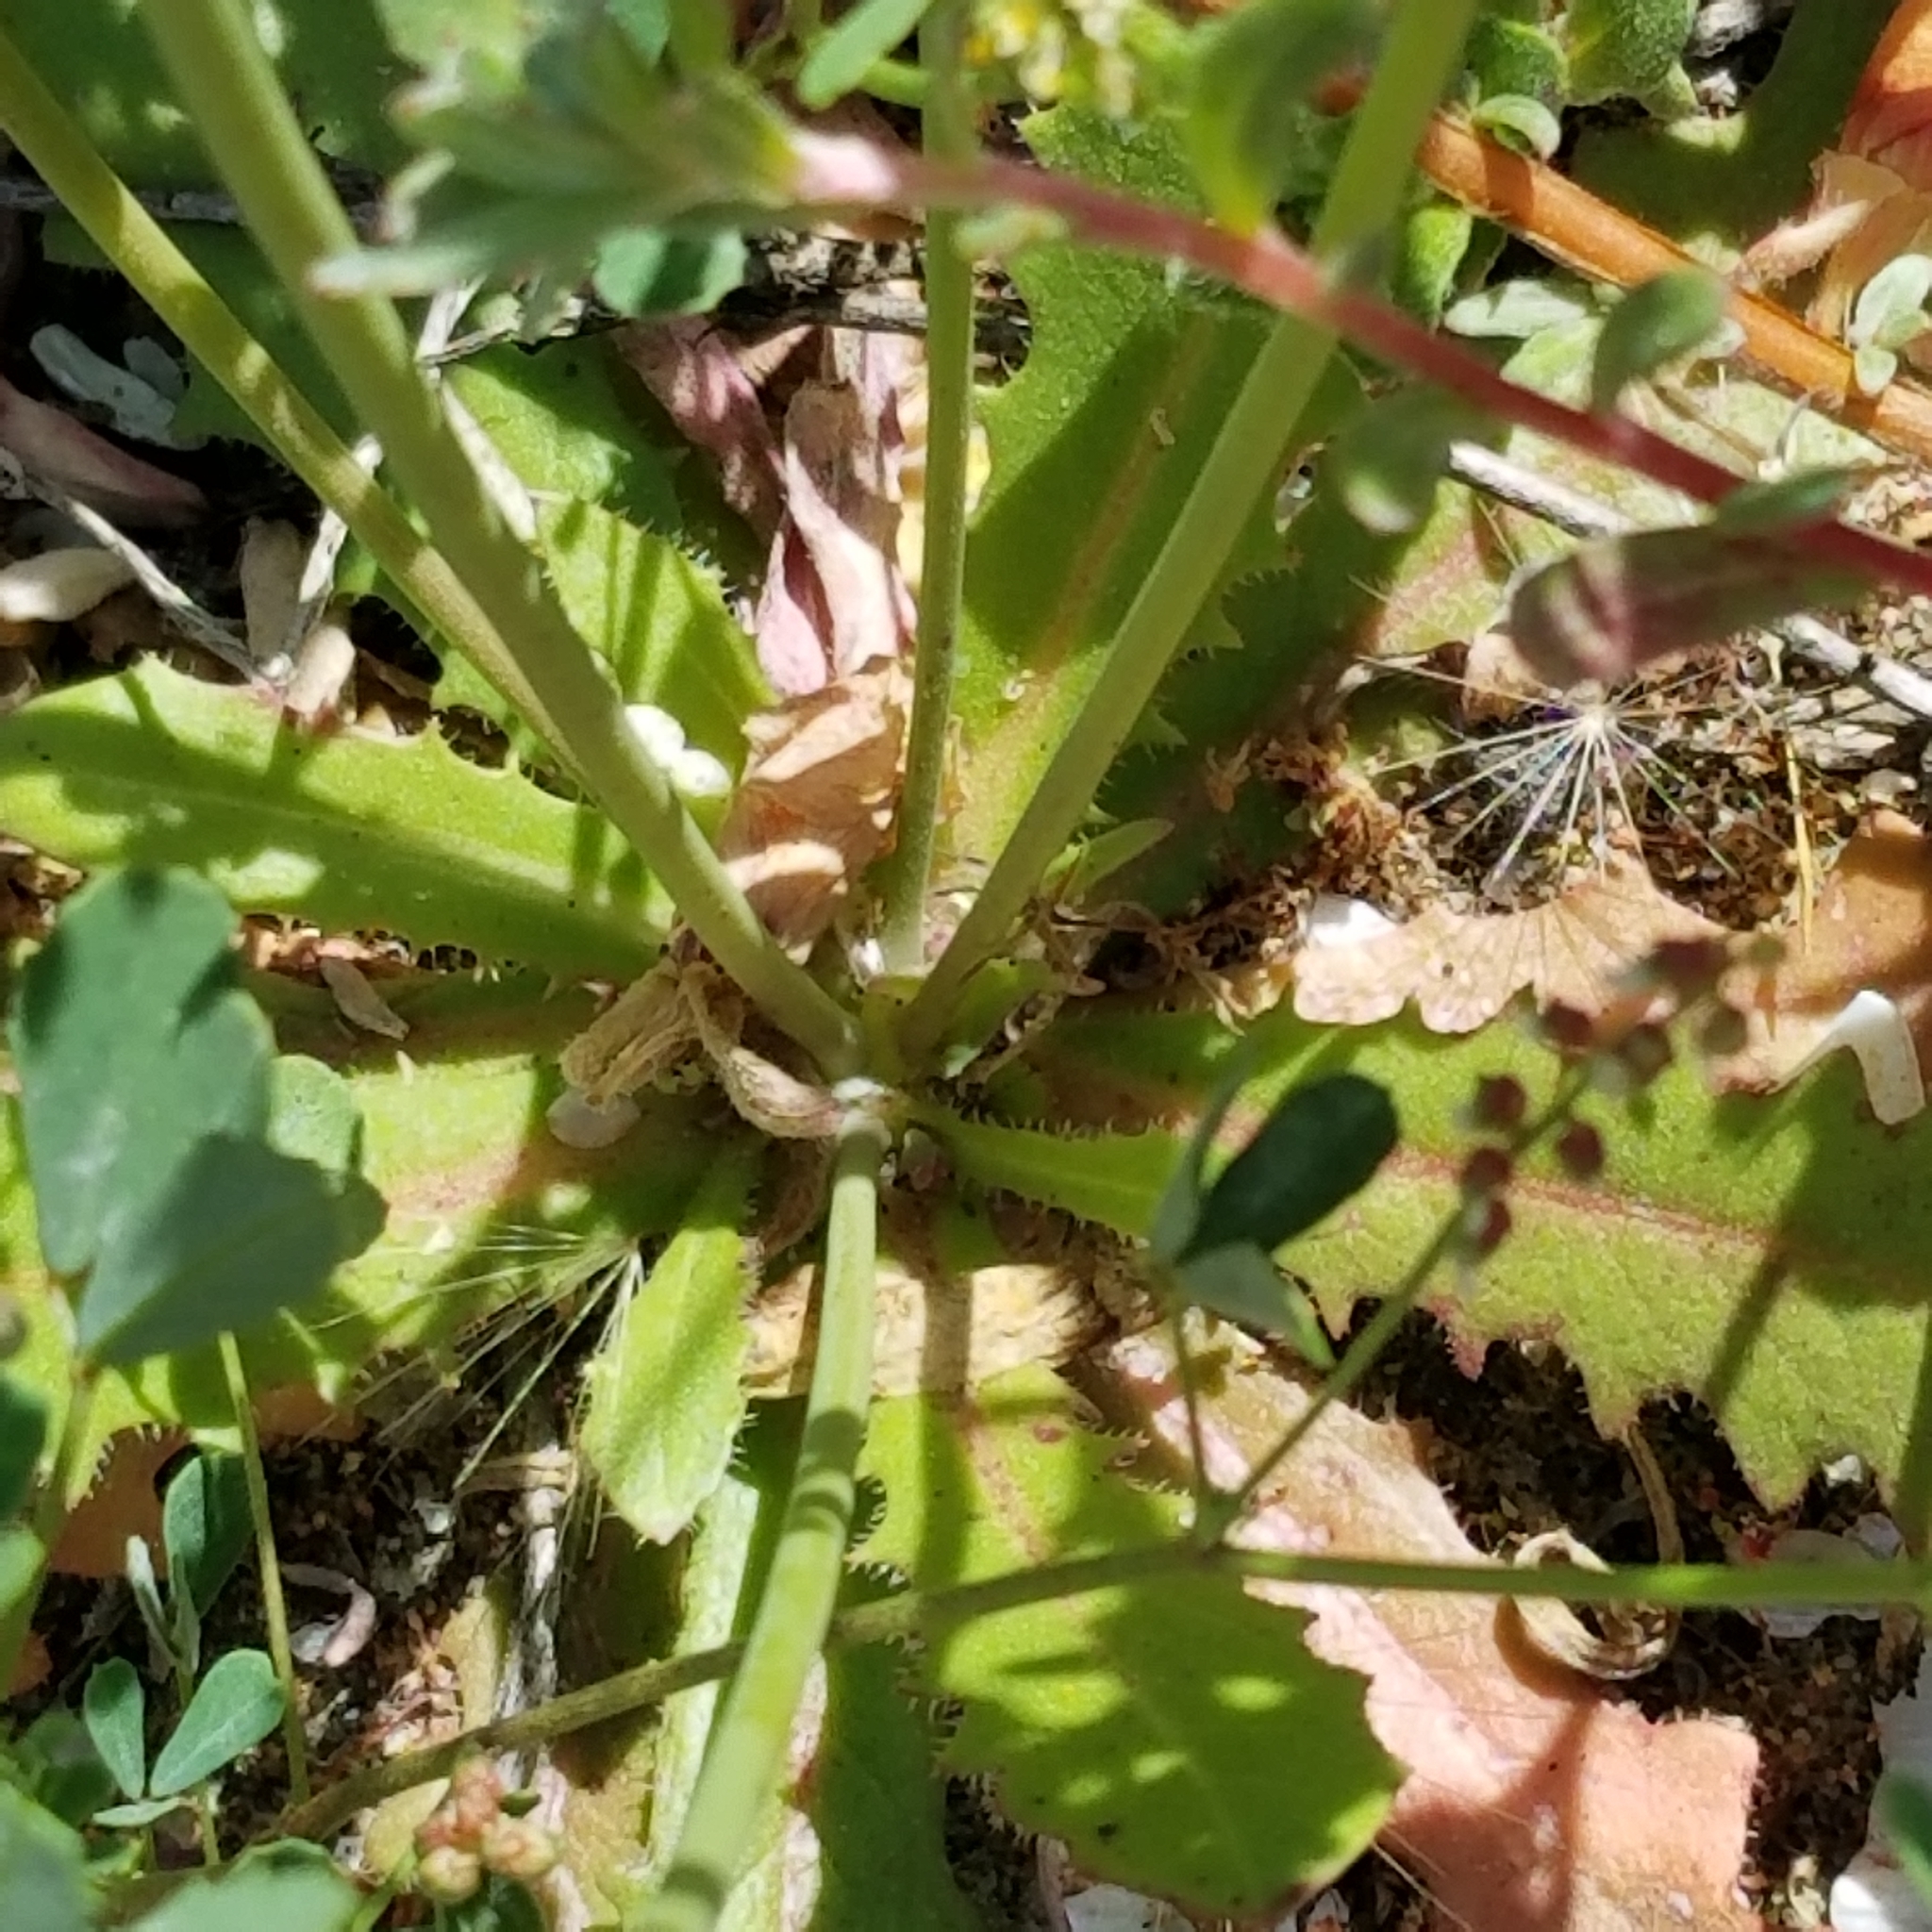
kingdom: Plantae
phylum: Tracheophyta
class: Magnoliopsida
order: Asterales
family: Asteraceae
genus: Hypochaeris
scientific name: Hypochaeris glabra
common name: Smooth catsear
